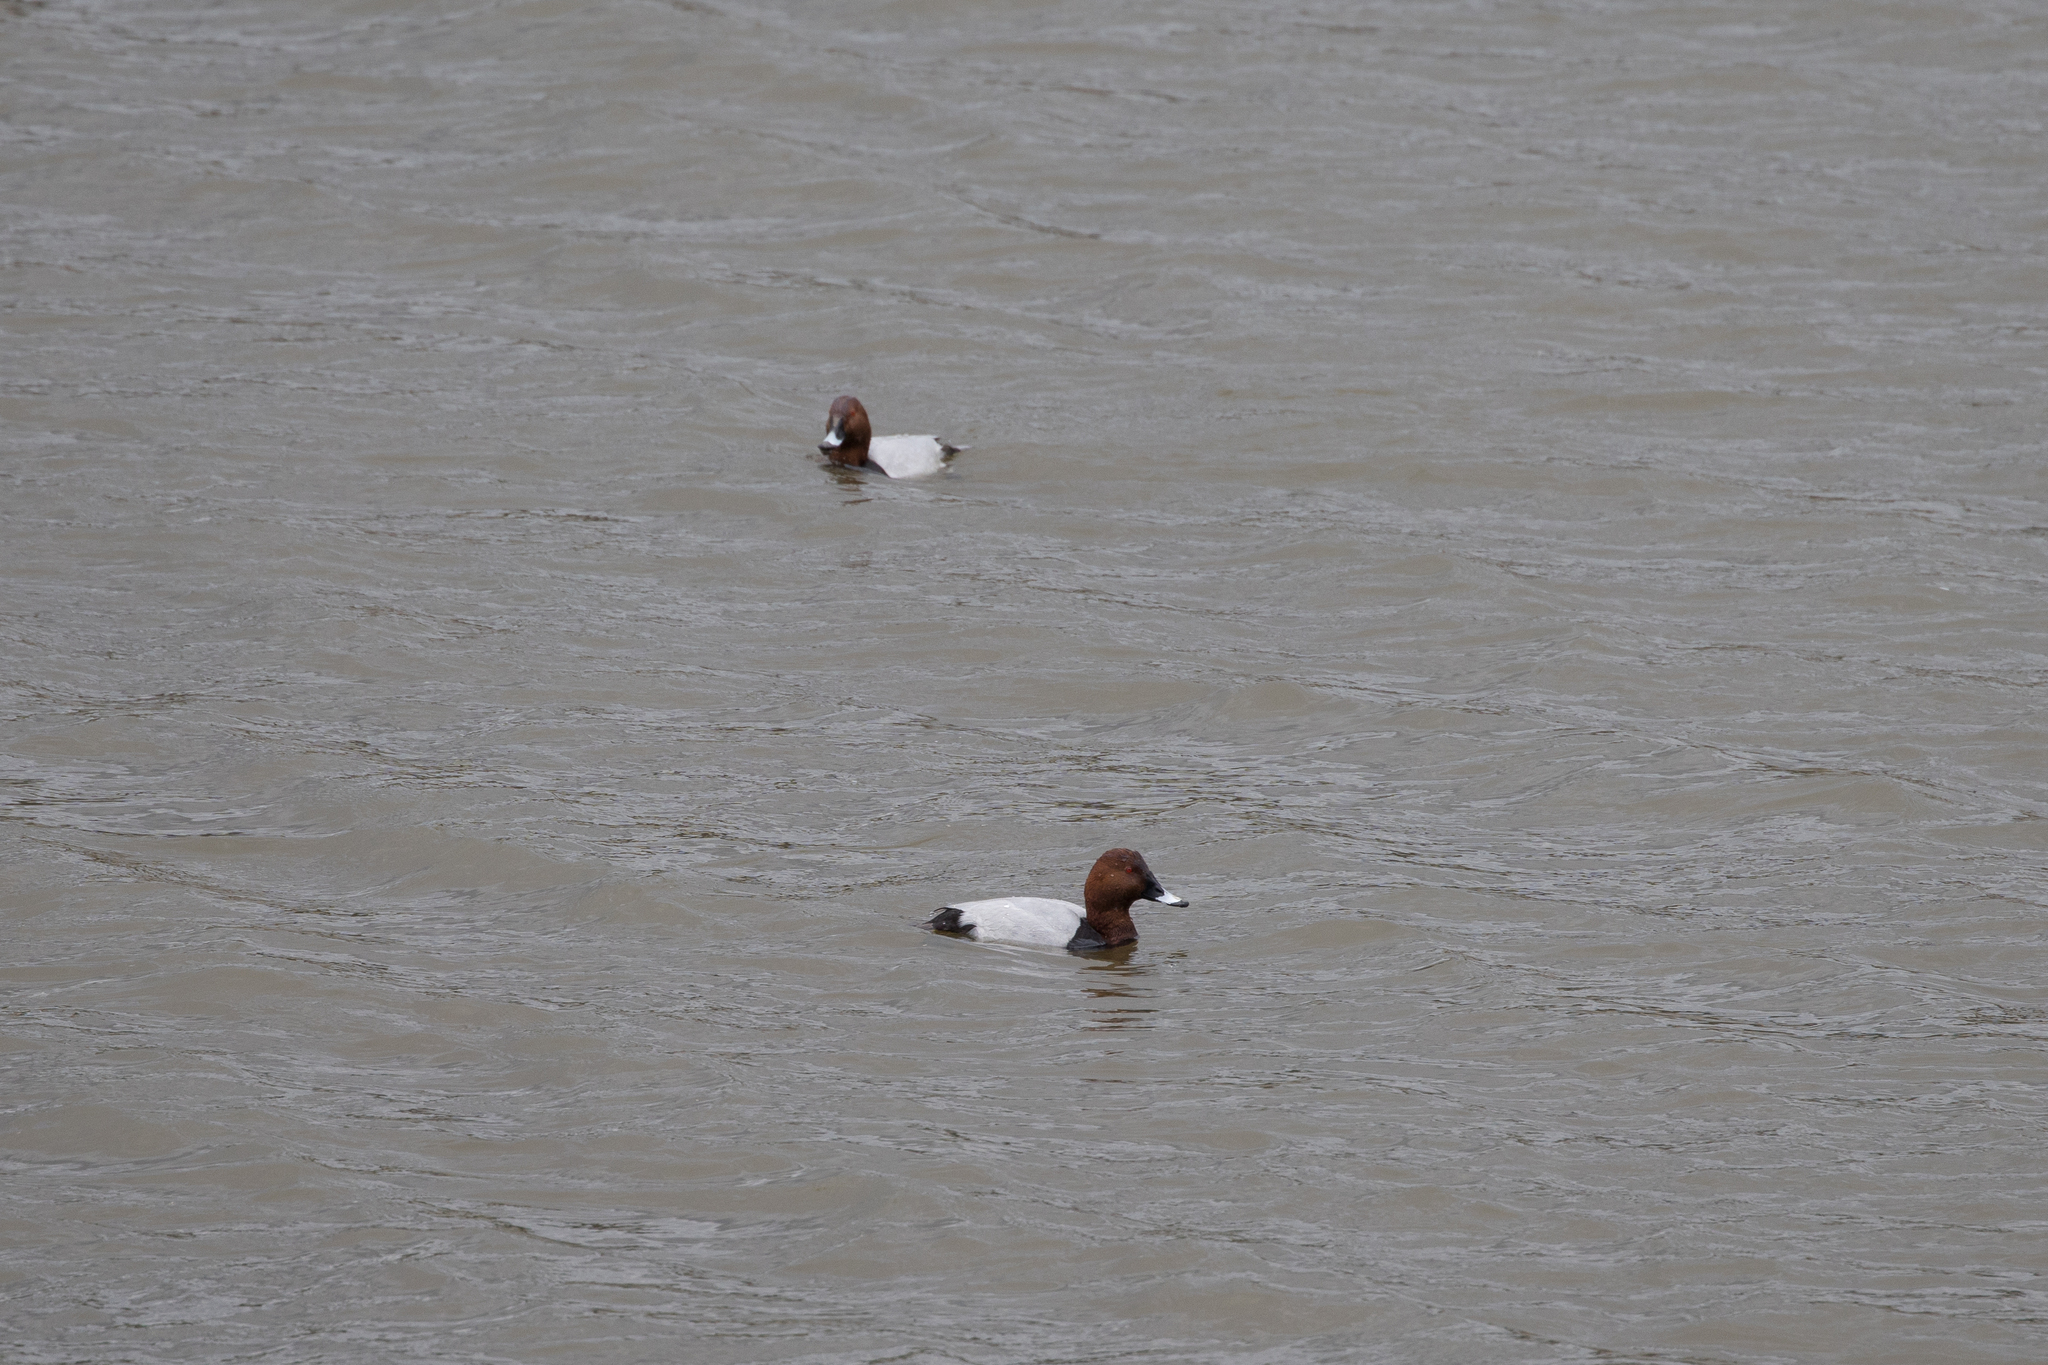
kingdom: Animalia
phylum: Chordata
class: Aves
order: Anseriformes
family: Anatidae
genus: Aythya
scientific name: Aythya ferina
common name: Common pochard
